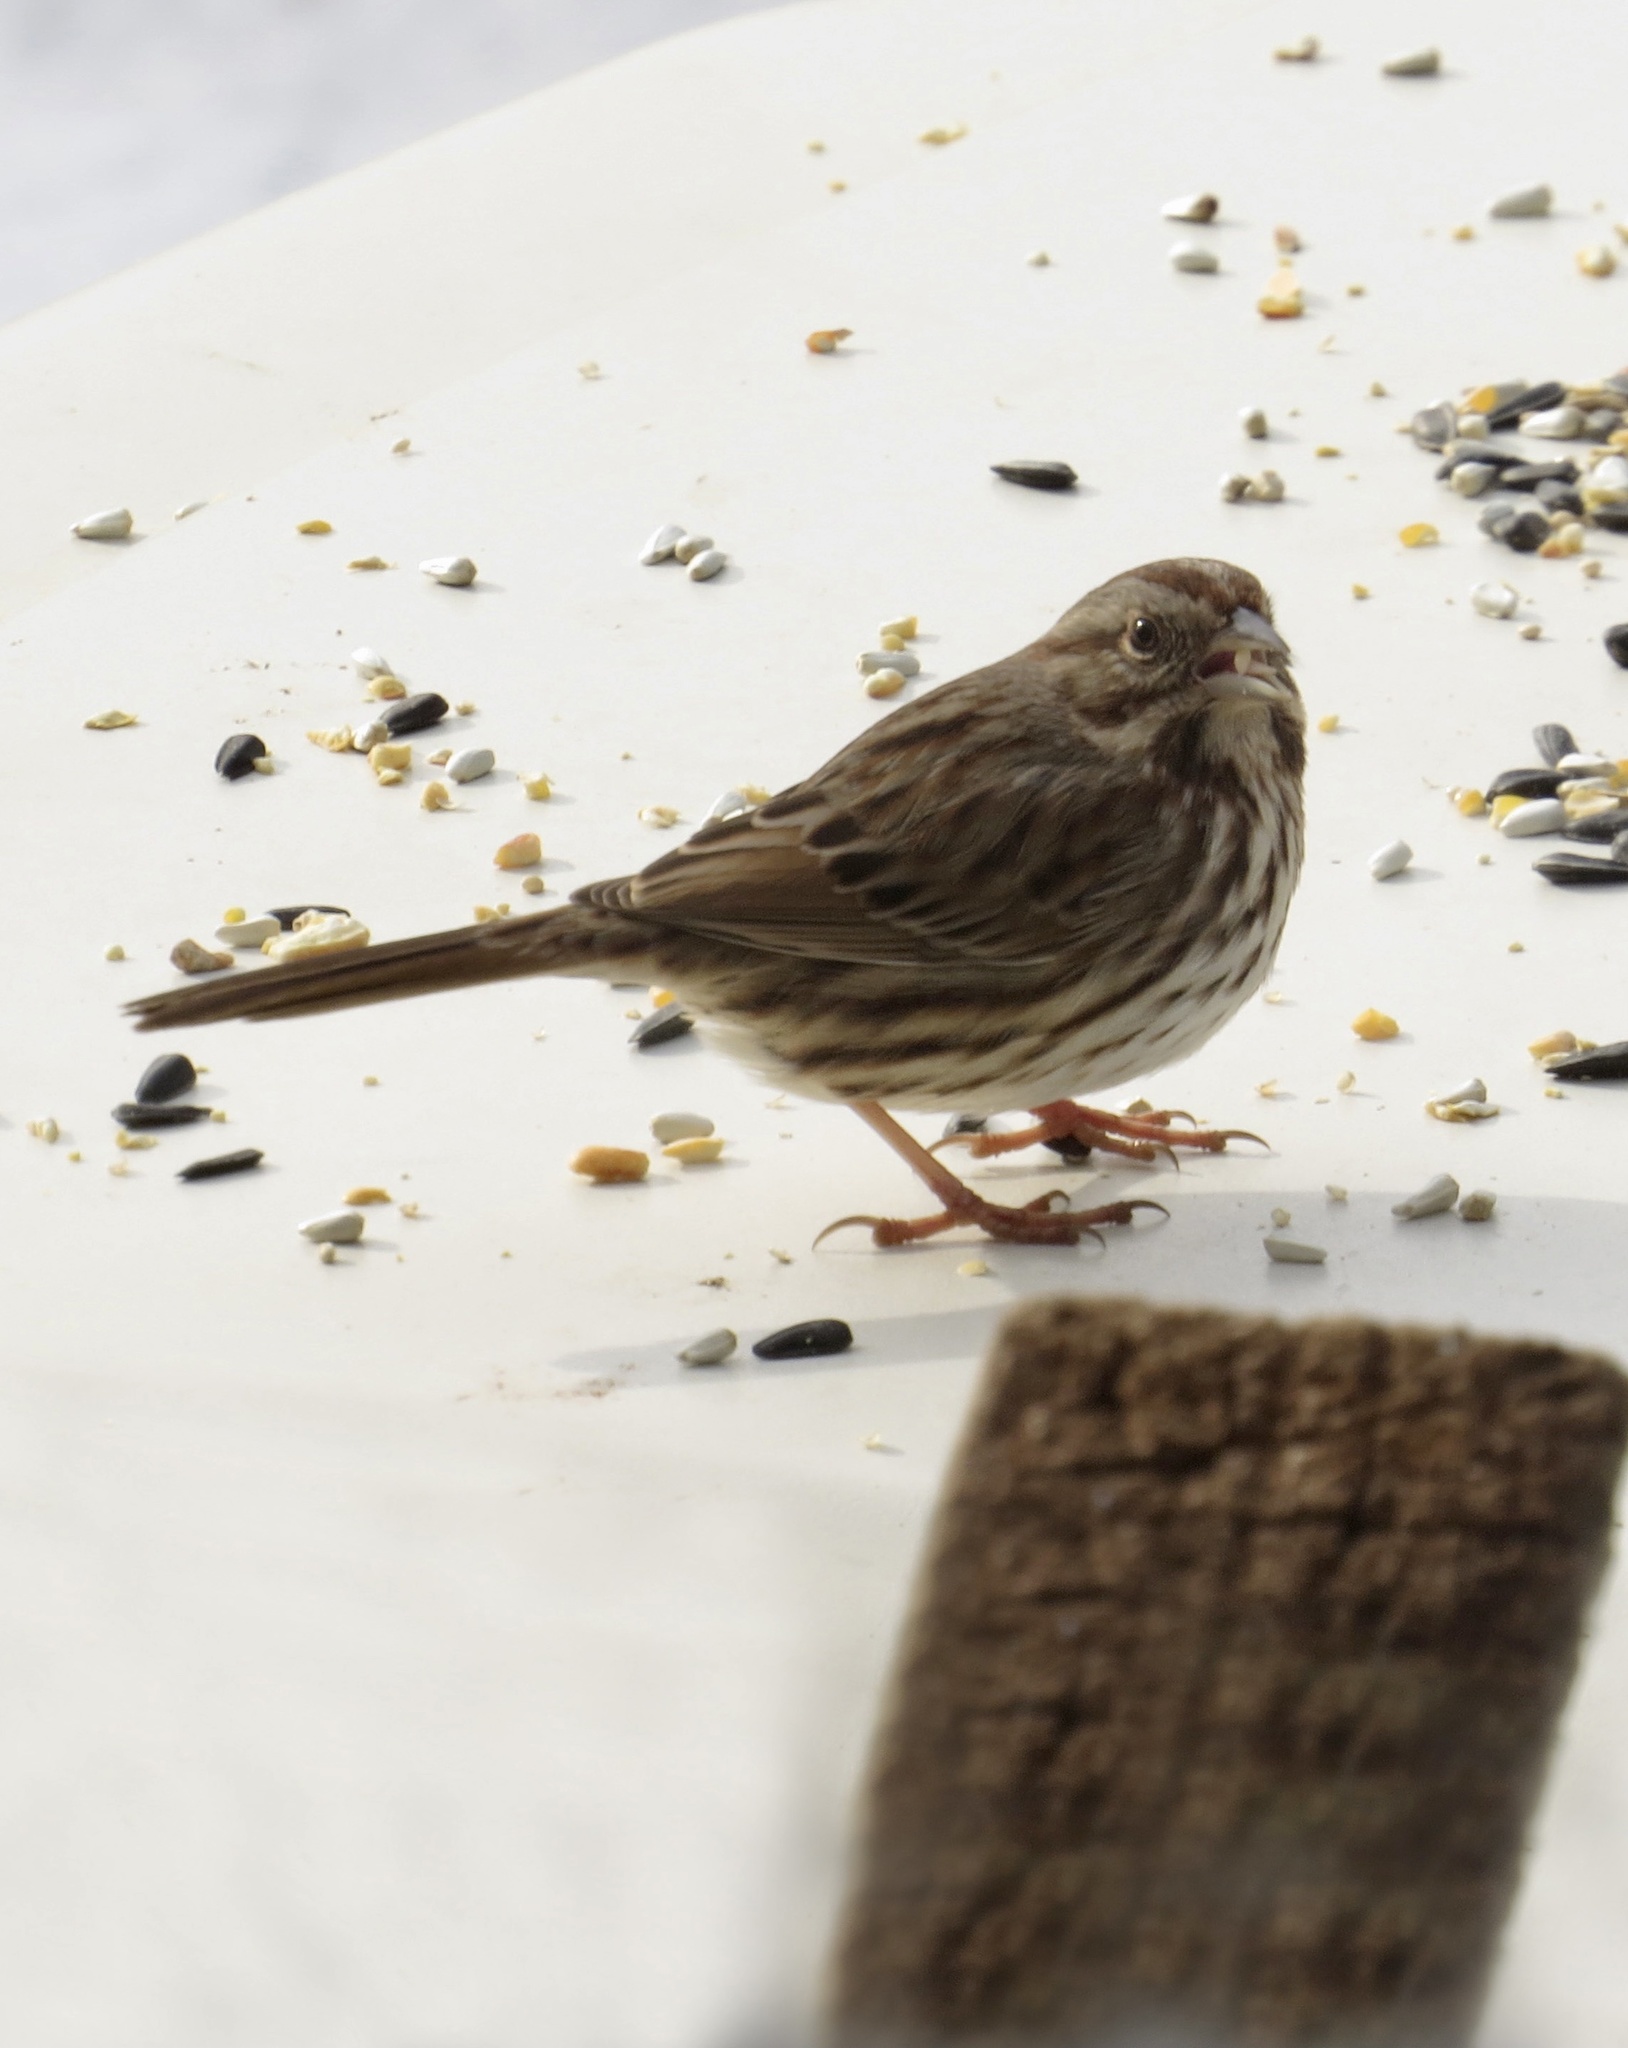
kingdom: Animalia
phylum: Chordata
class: Aves
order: Passeriformes
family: Passerellidae
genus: Melospiza
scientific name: Melospiza melodia
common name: Song sparrow
